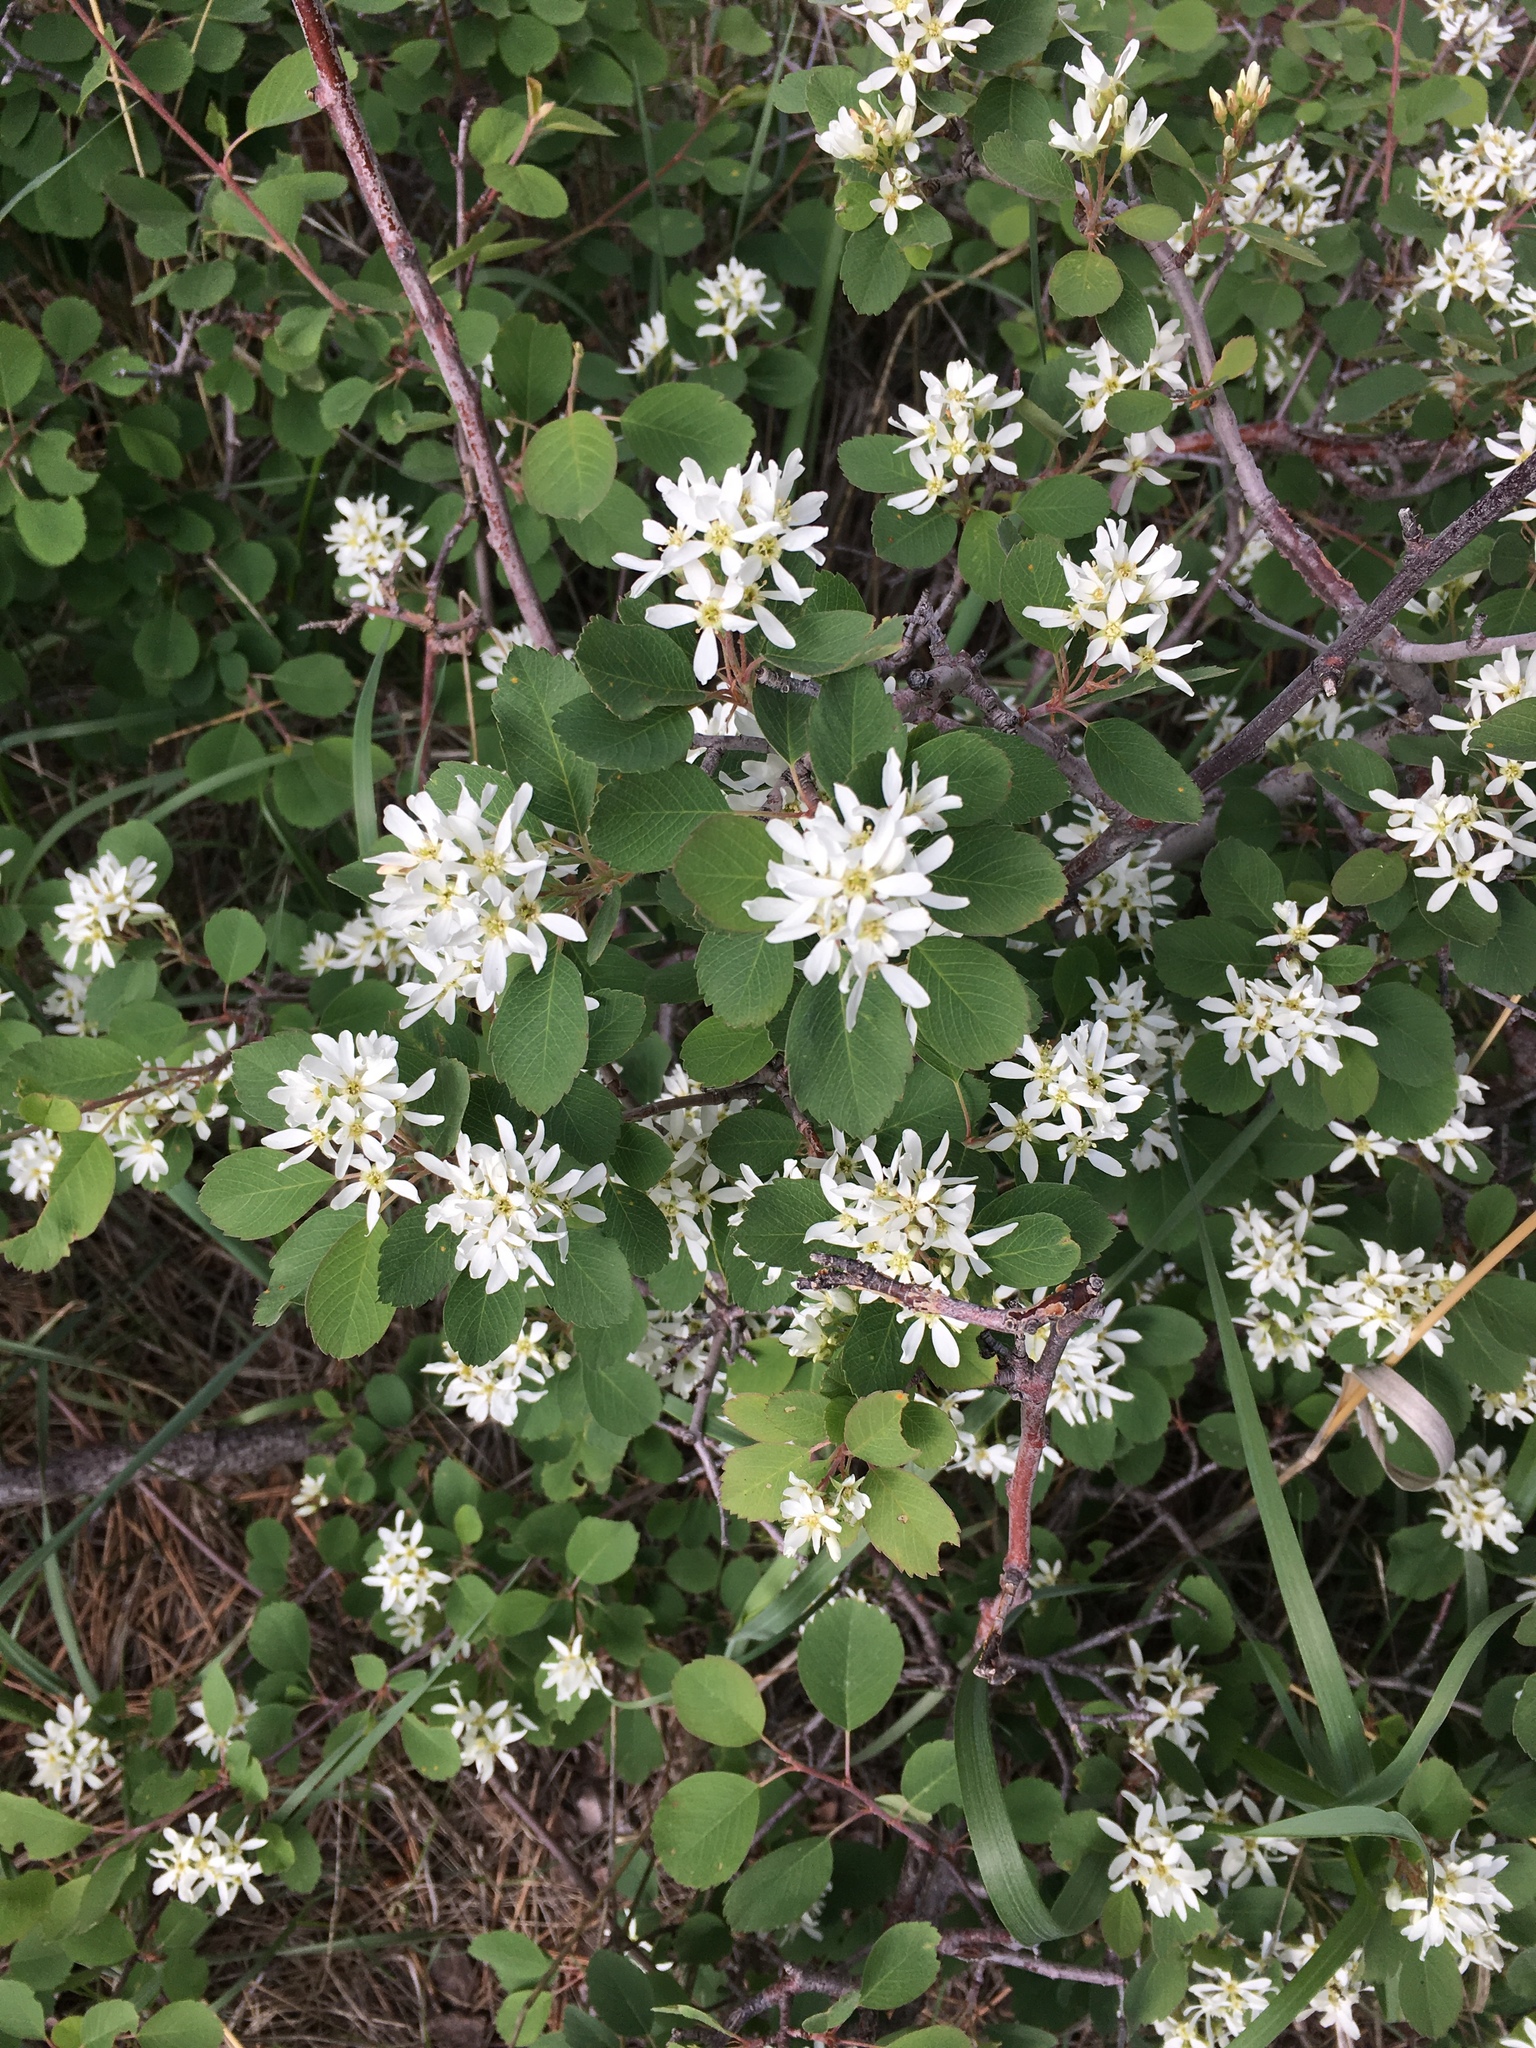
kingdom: Plantae
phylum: Tracheophyta
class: Magnoliopsida
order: Rosales
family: Rosaceae
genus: Amelanchier
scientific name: Amelanchier alnifolia
